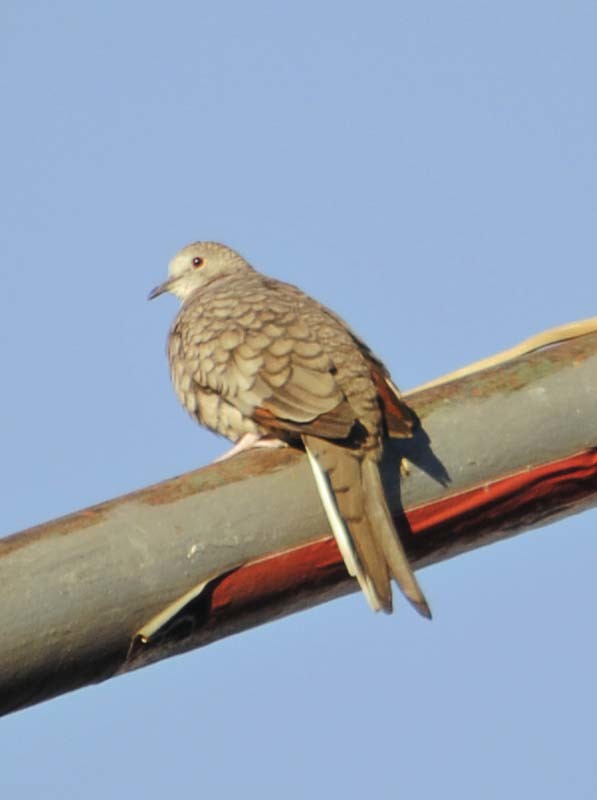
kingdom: Animalia
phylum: Chordata
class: Aves
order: Columbiformes
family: Columbidae
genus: Columbina
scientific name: Columbina inca
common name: Inca dove
